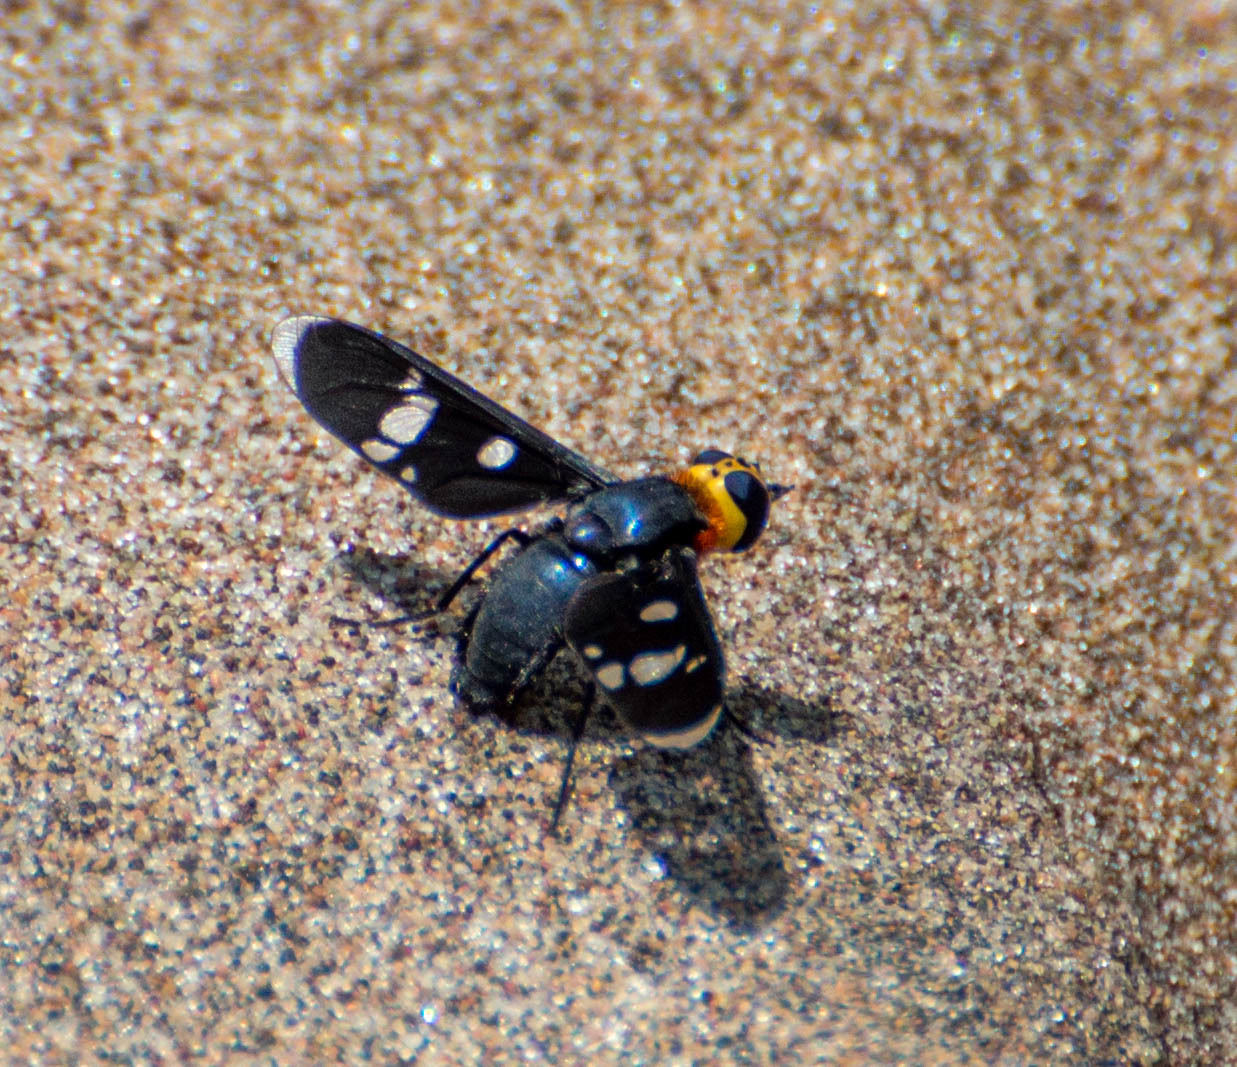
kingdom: Animalia
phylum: Arthropoda
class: Insecta
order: Diptera
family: Bombyliidae
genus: Hyperalonia
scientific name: Hyperalonia morio
